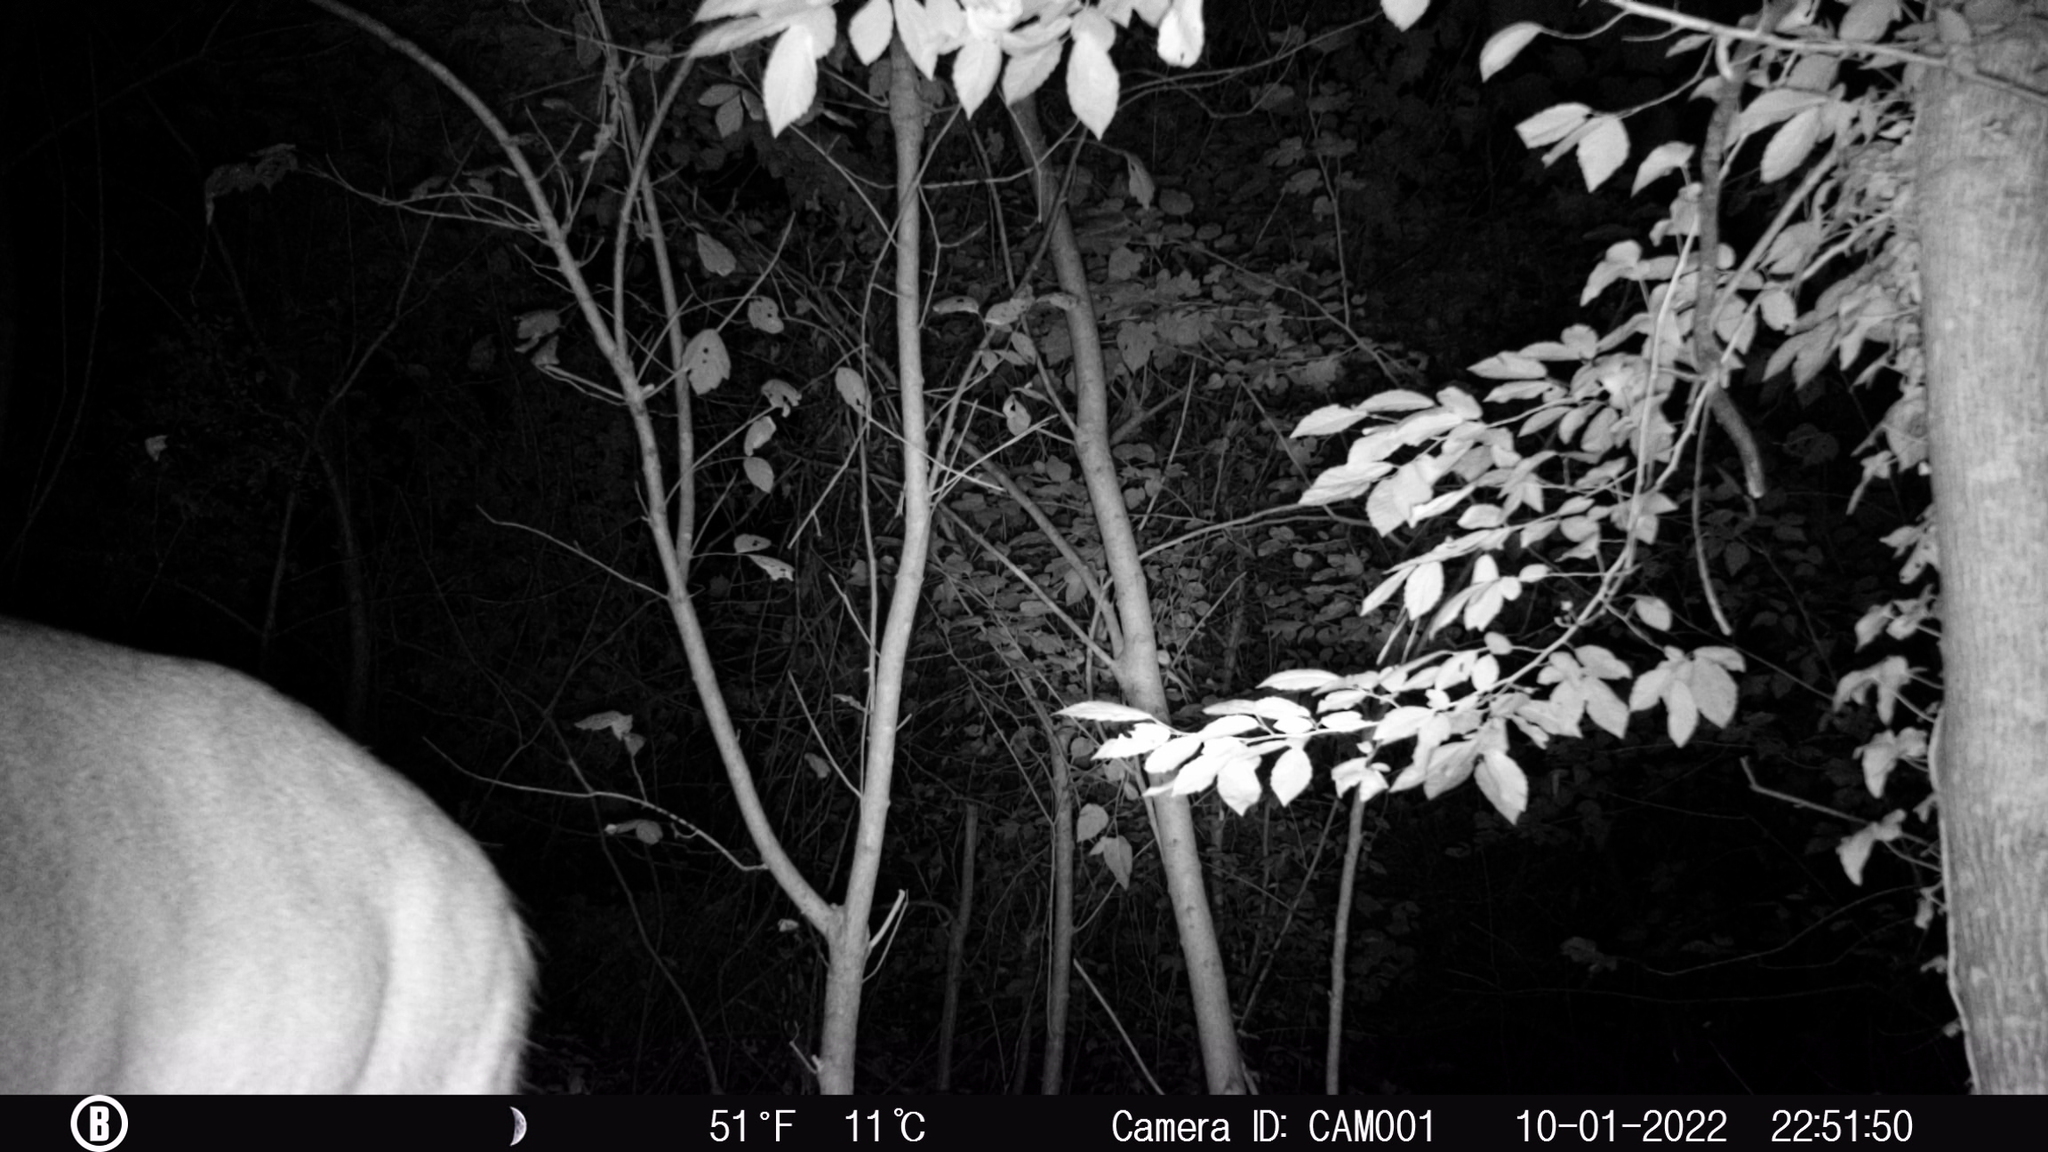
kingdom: Animalia
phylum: Chordata
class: Mammalia
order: Artiodactyla
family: Cervidae
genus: Odocoileus
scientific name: Odocoileus virginianus
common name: White-tailed deer
